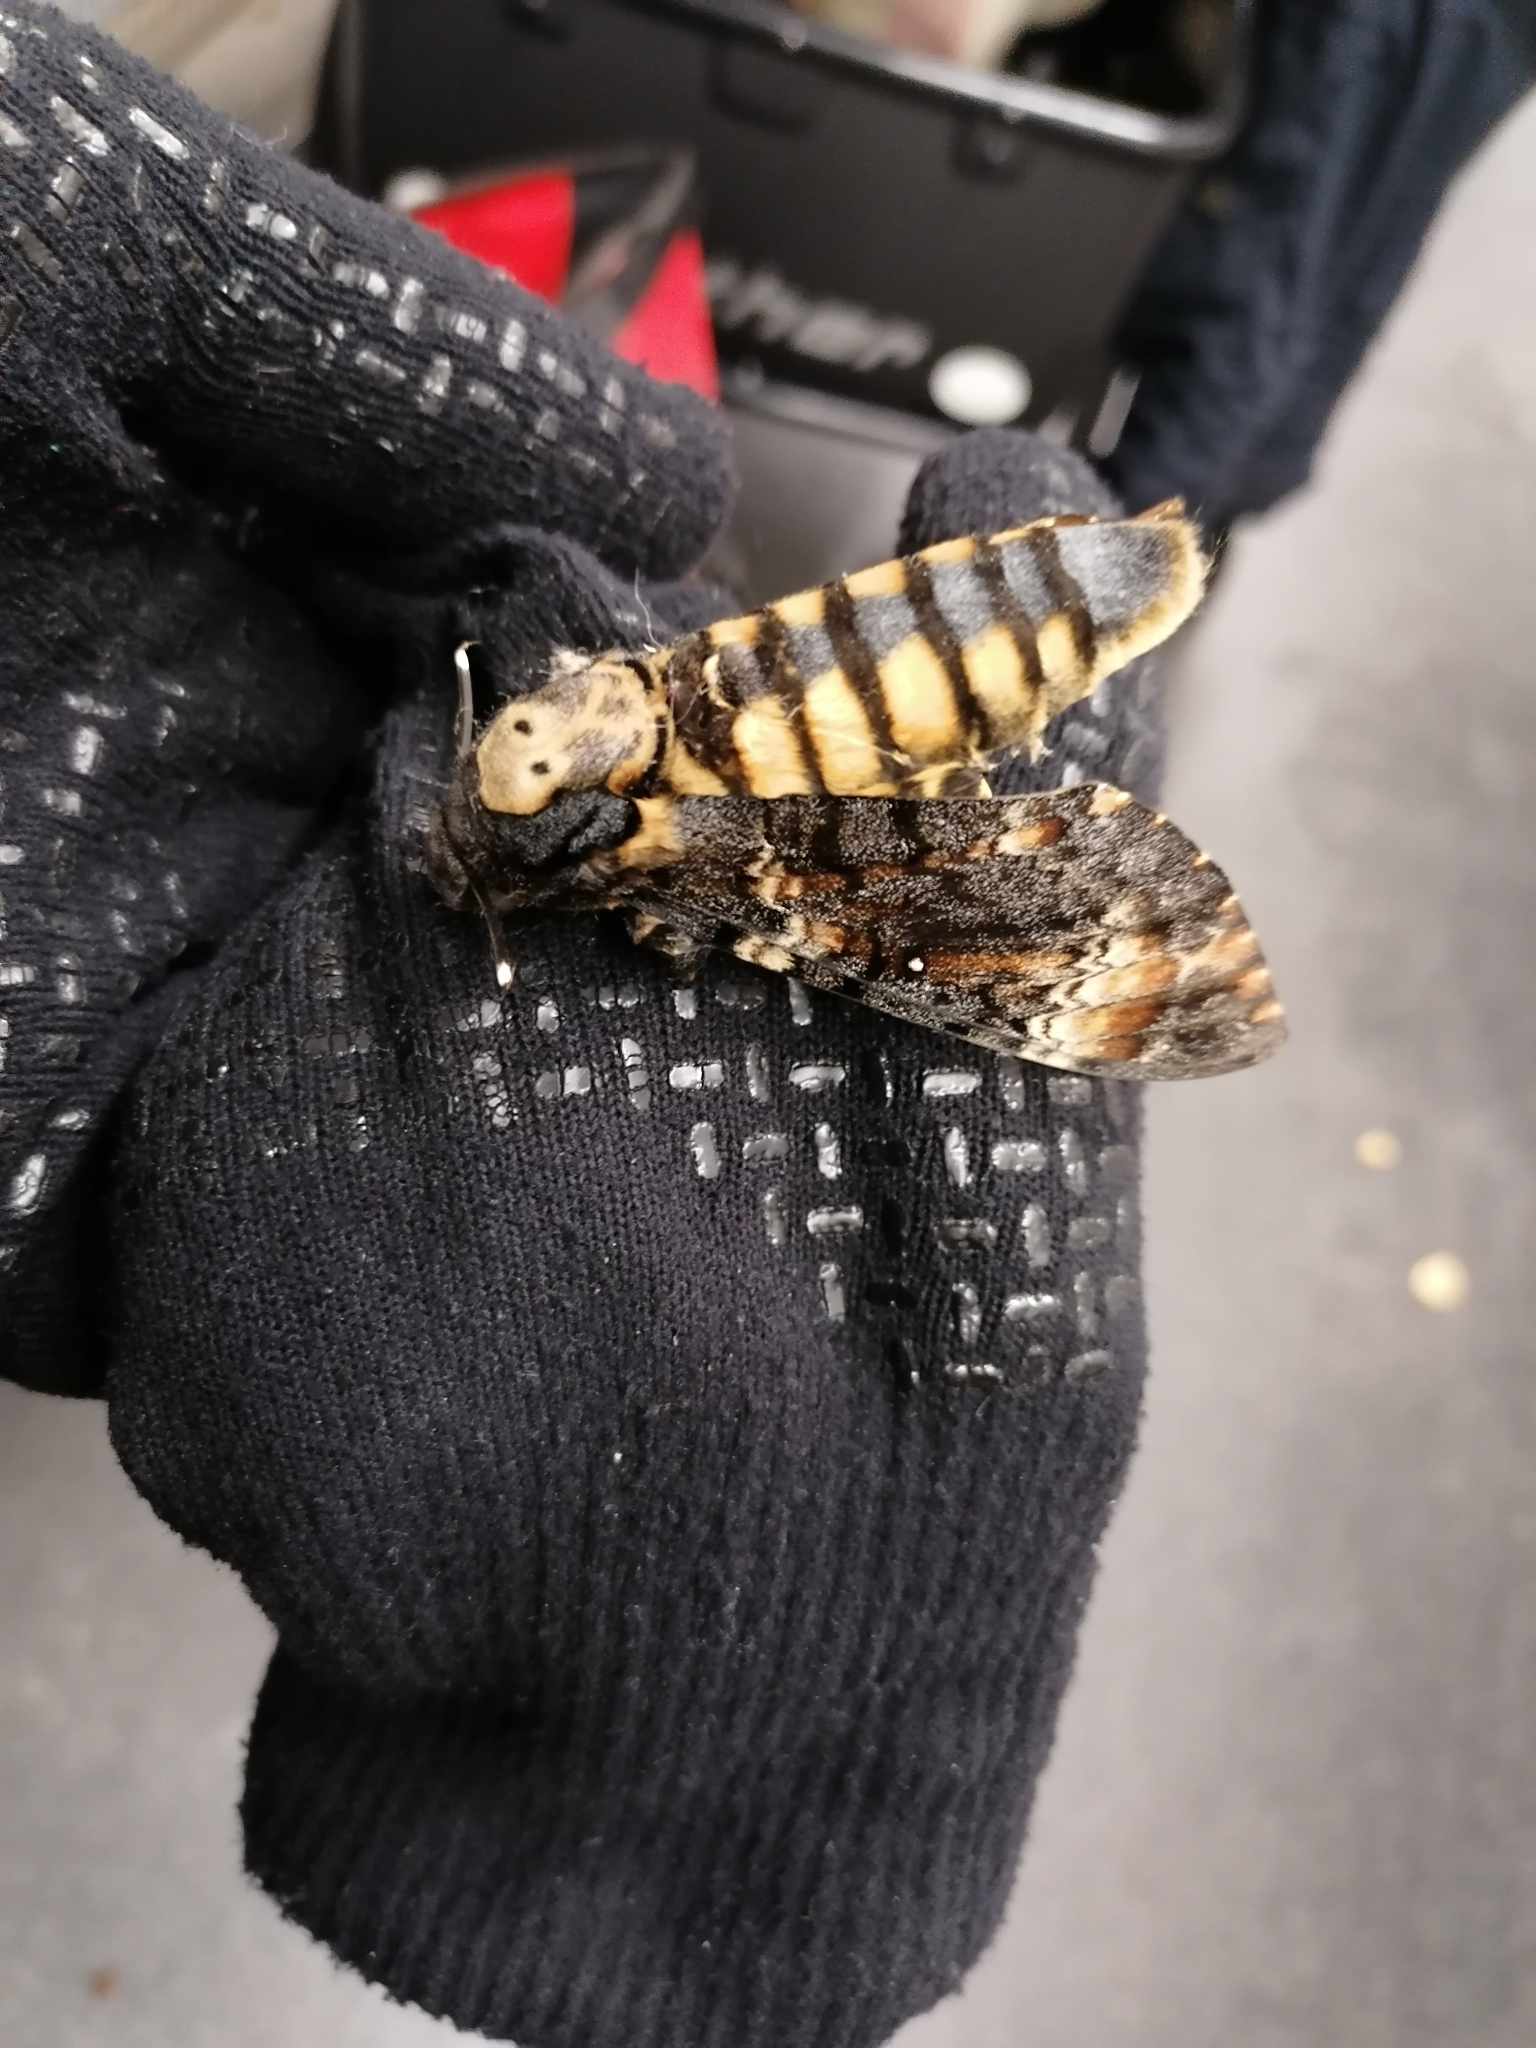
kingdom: Animalia
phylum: Arthropoda
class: Insecta
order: Lepidoptera
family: Sphingidae
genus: Acherontia
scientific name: Acherontia atropos
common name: Death's-head hawk moth
